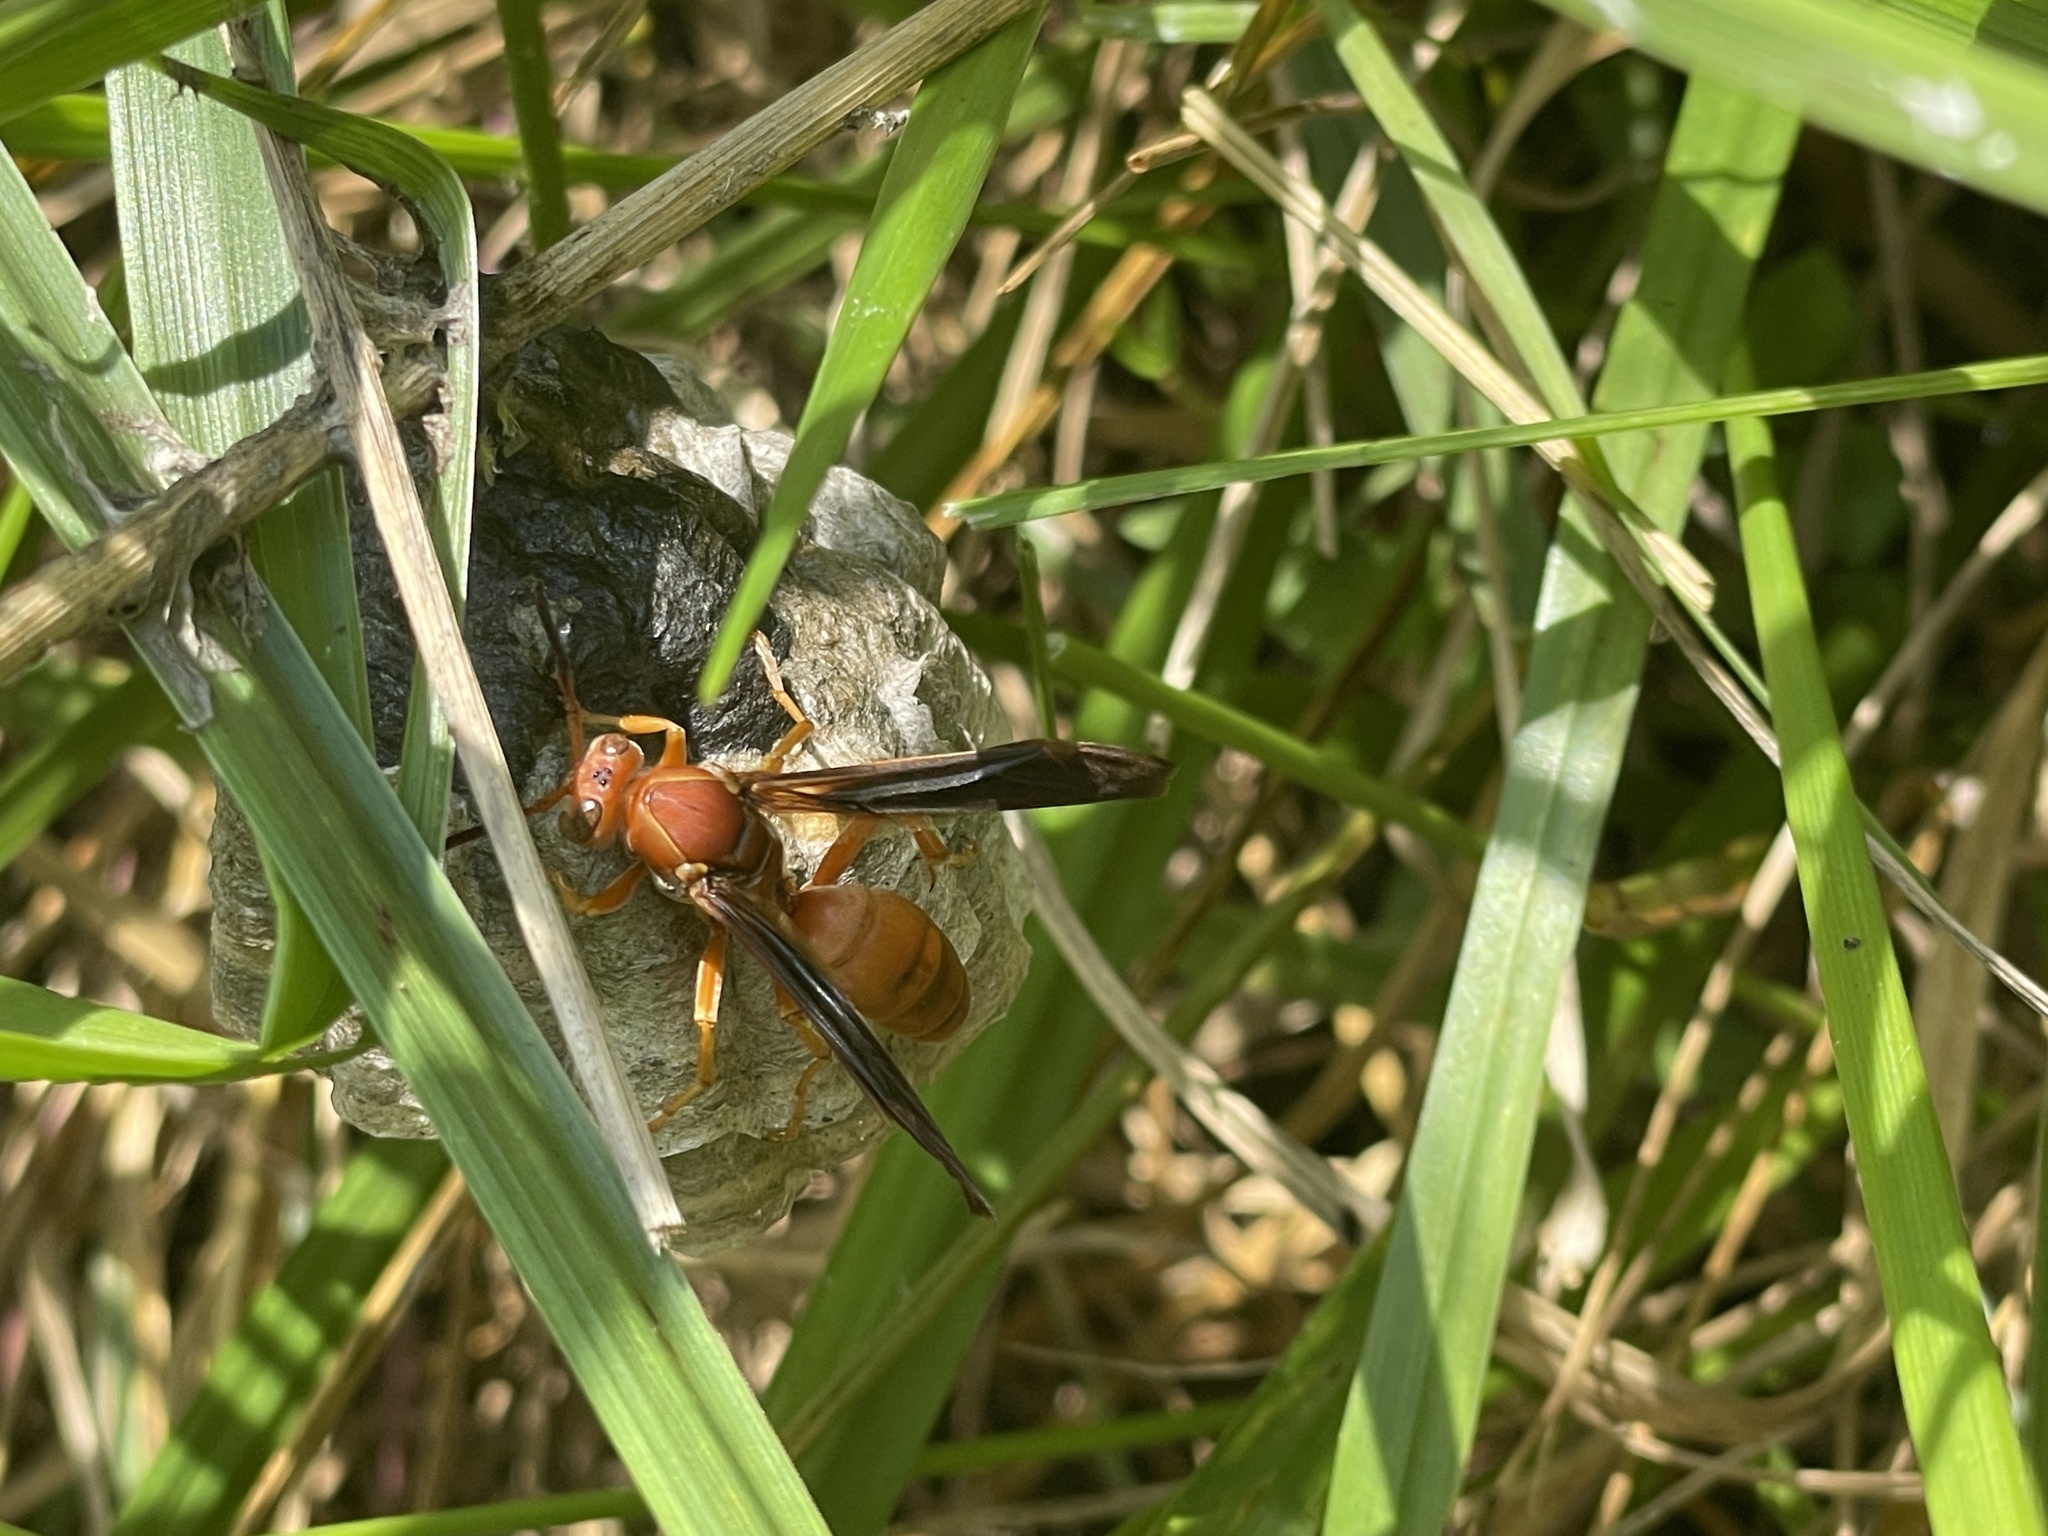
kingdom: Animalia
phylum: Arthropoda
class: Insecta
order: Hymenoptera
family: Eumenidae
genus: Polistes
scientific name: Polistes carolina
